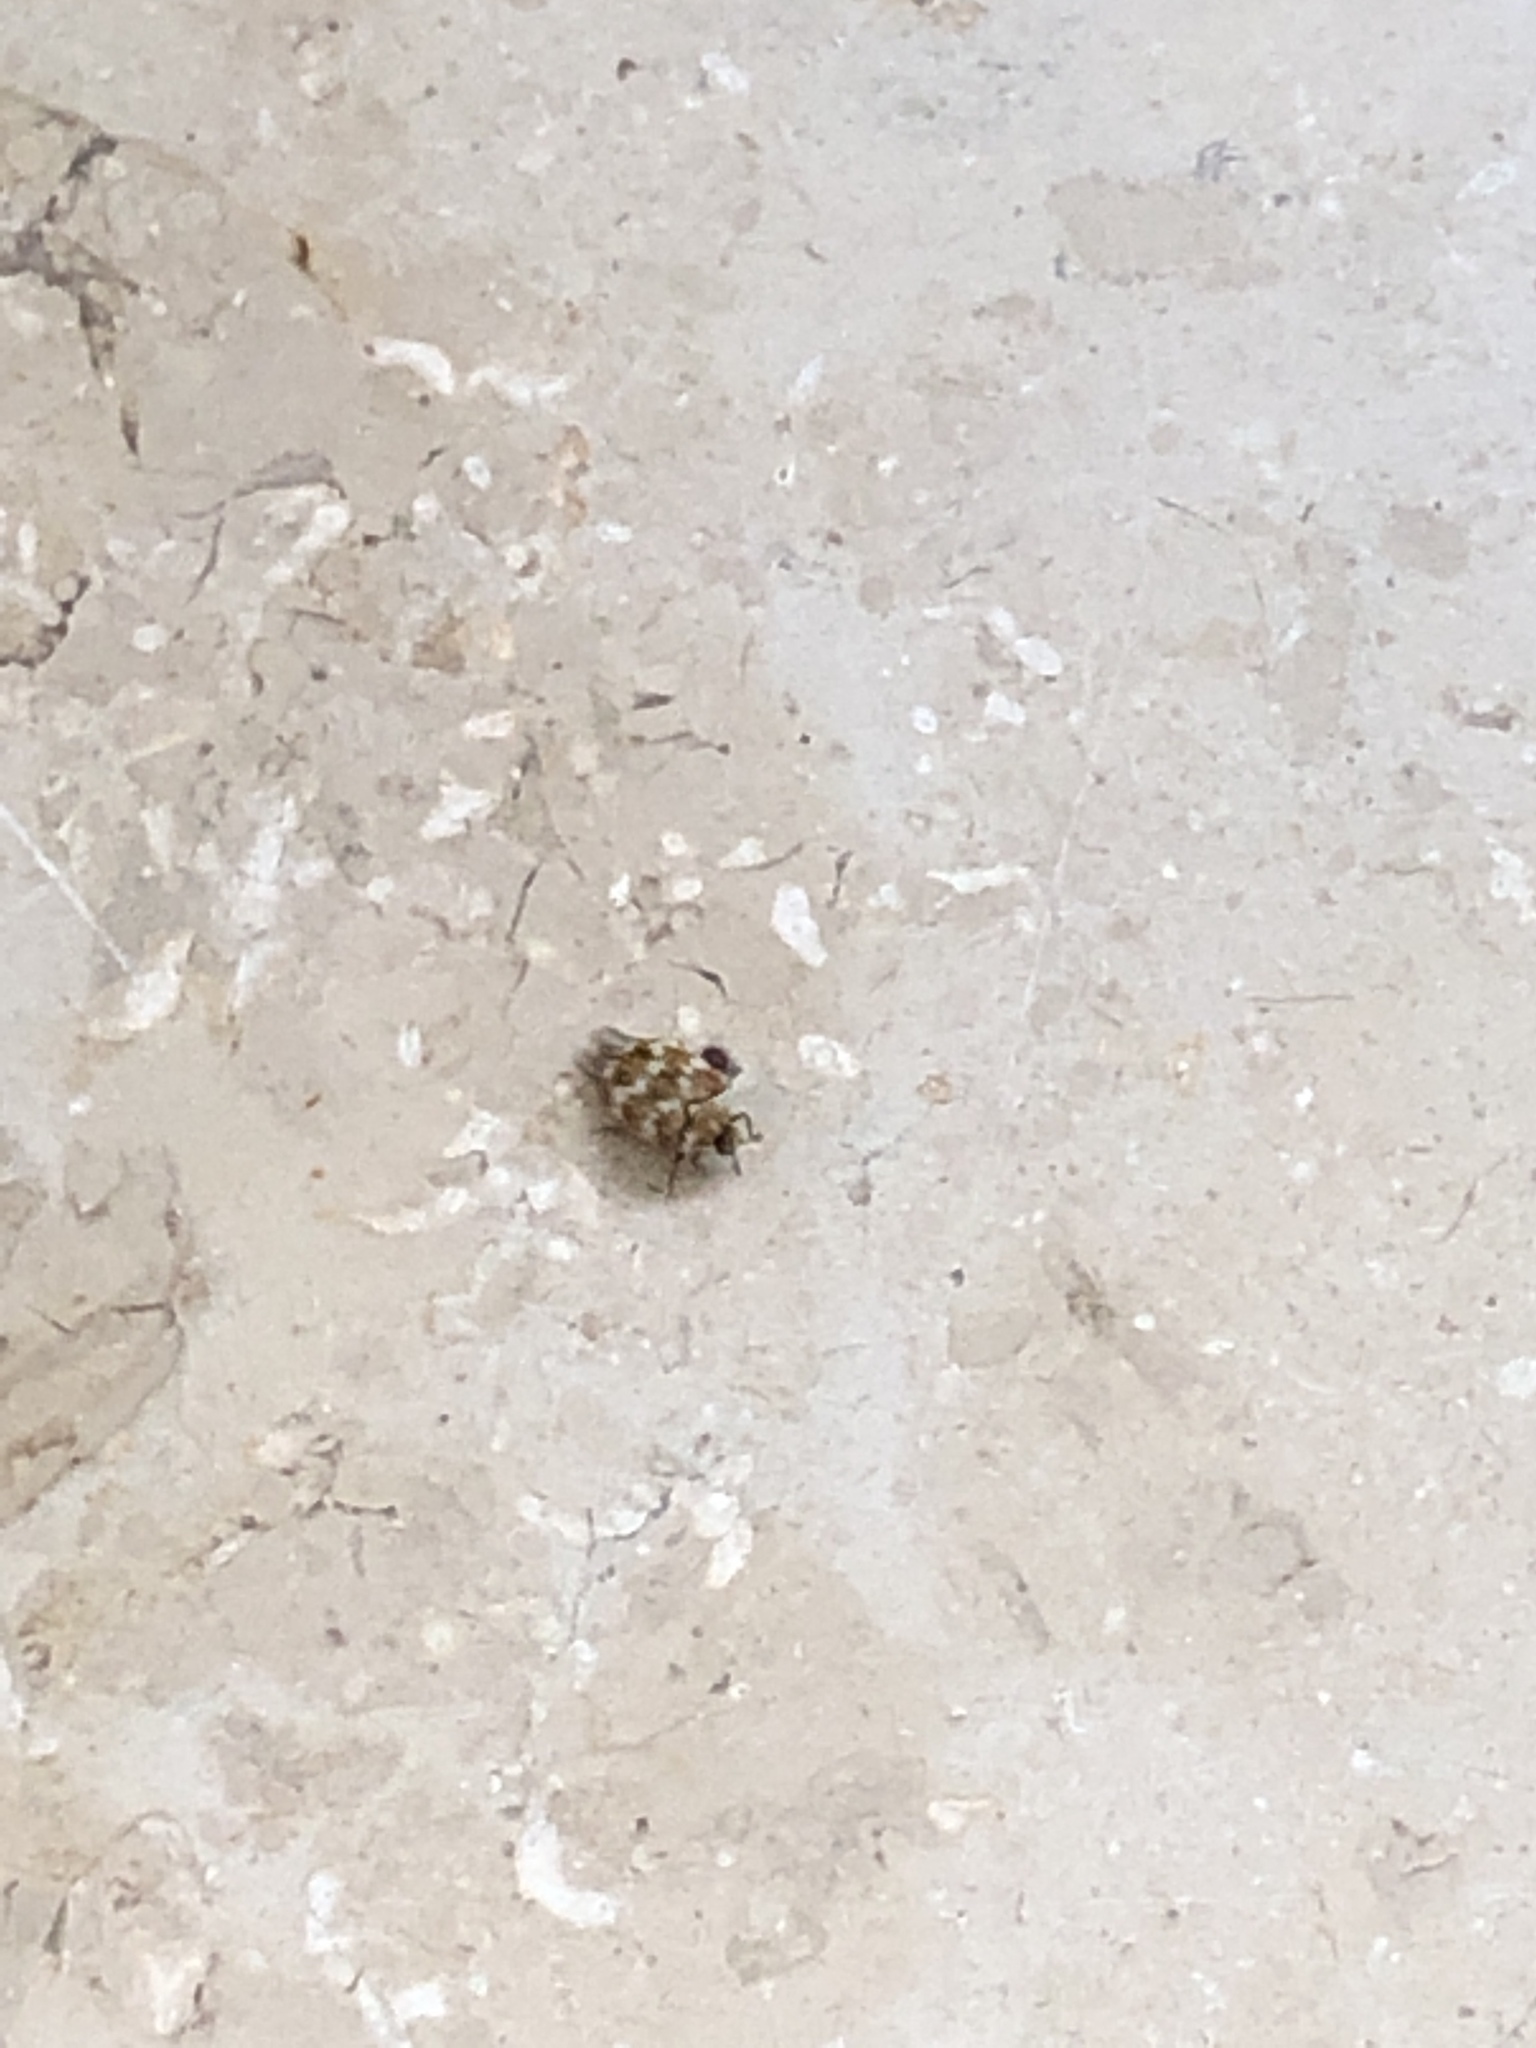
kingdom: Animalia
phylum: Arthropoda
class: Insecta
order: Coleoptera
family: Dermestidae
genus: Anthrenus
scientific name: Anthrenus verbasci
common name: Varied carpet beetle
